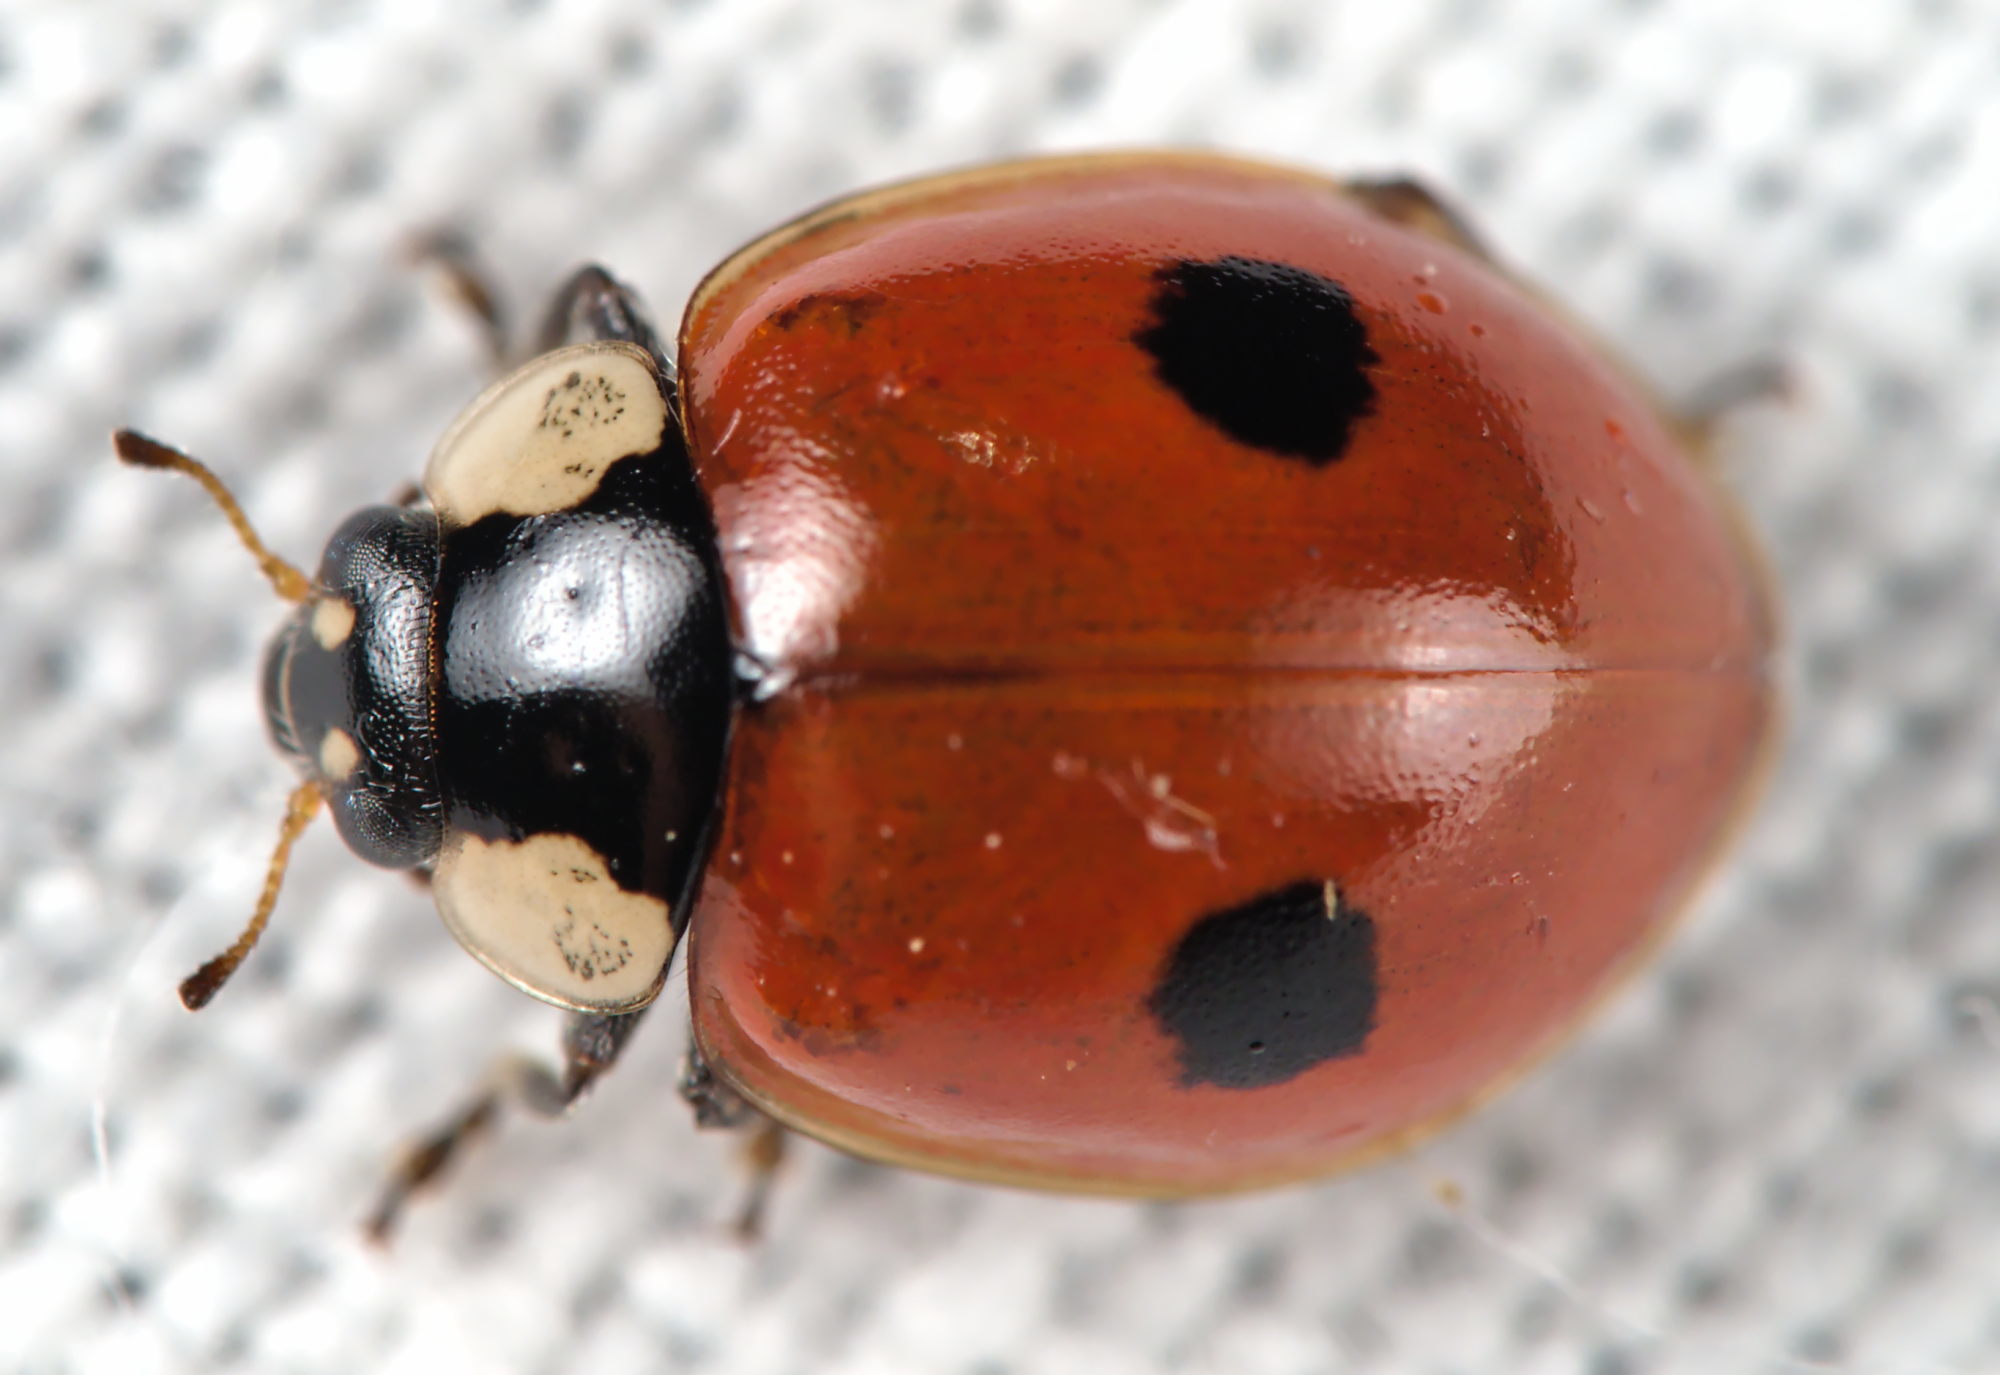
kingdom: Animalia
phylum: Arthropoda
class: Insecta
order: Coleoptera
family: Coccinellidae
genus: Adalia
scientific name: Adalia bipunctata
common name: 2-spot ladybird
